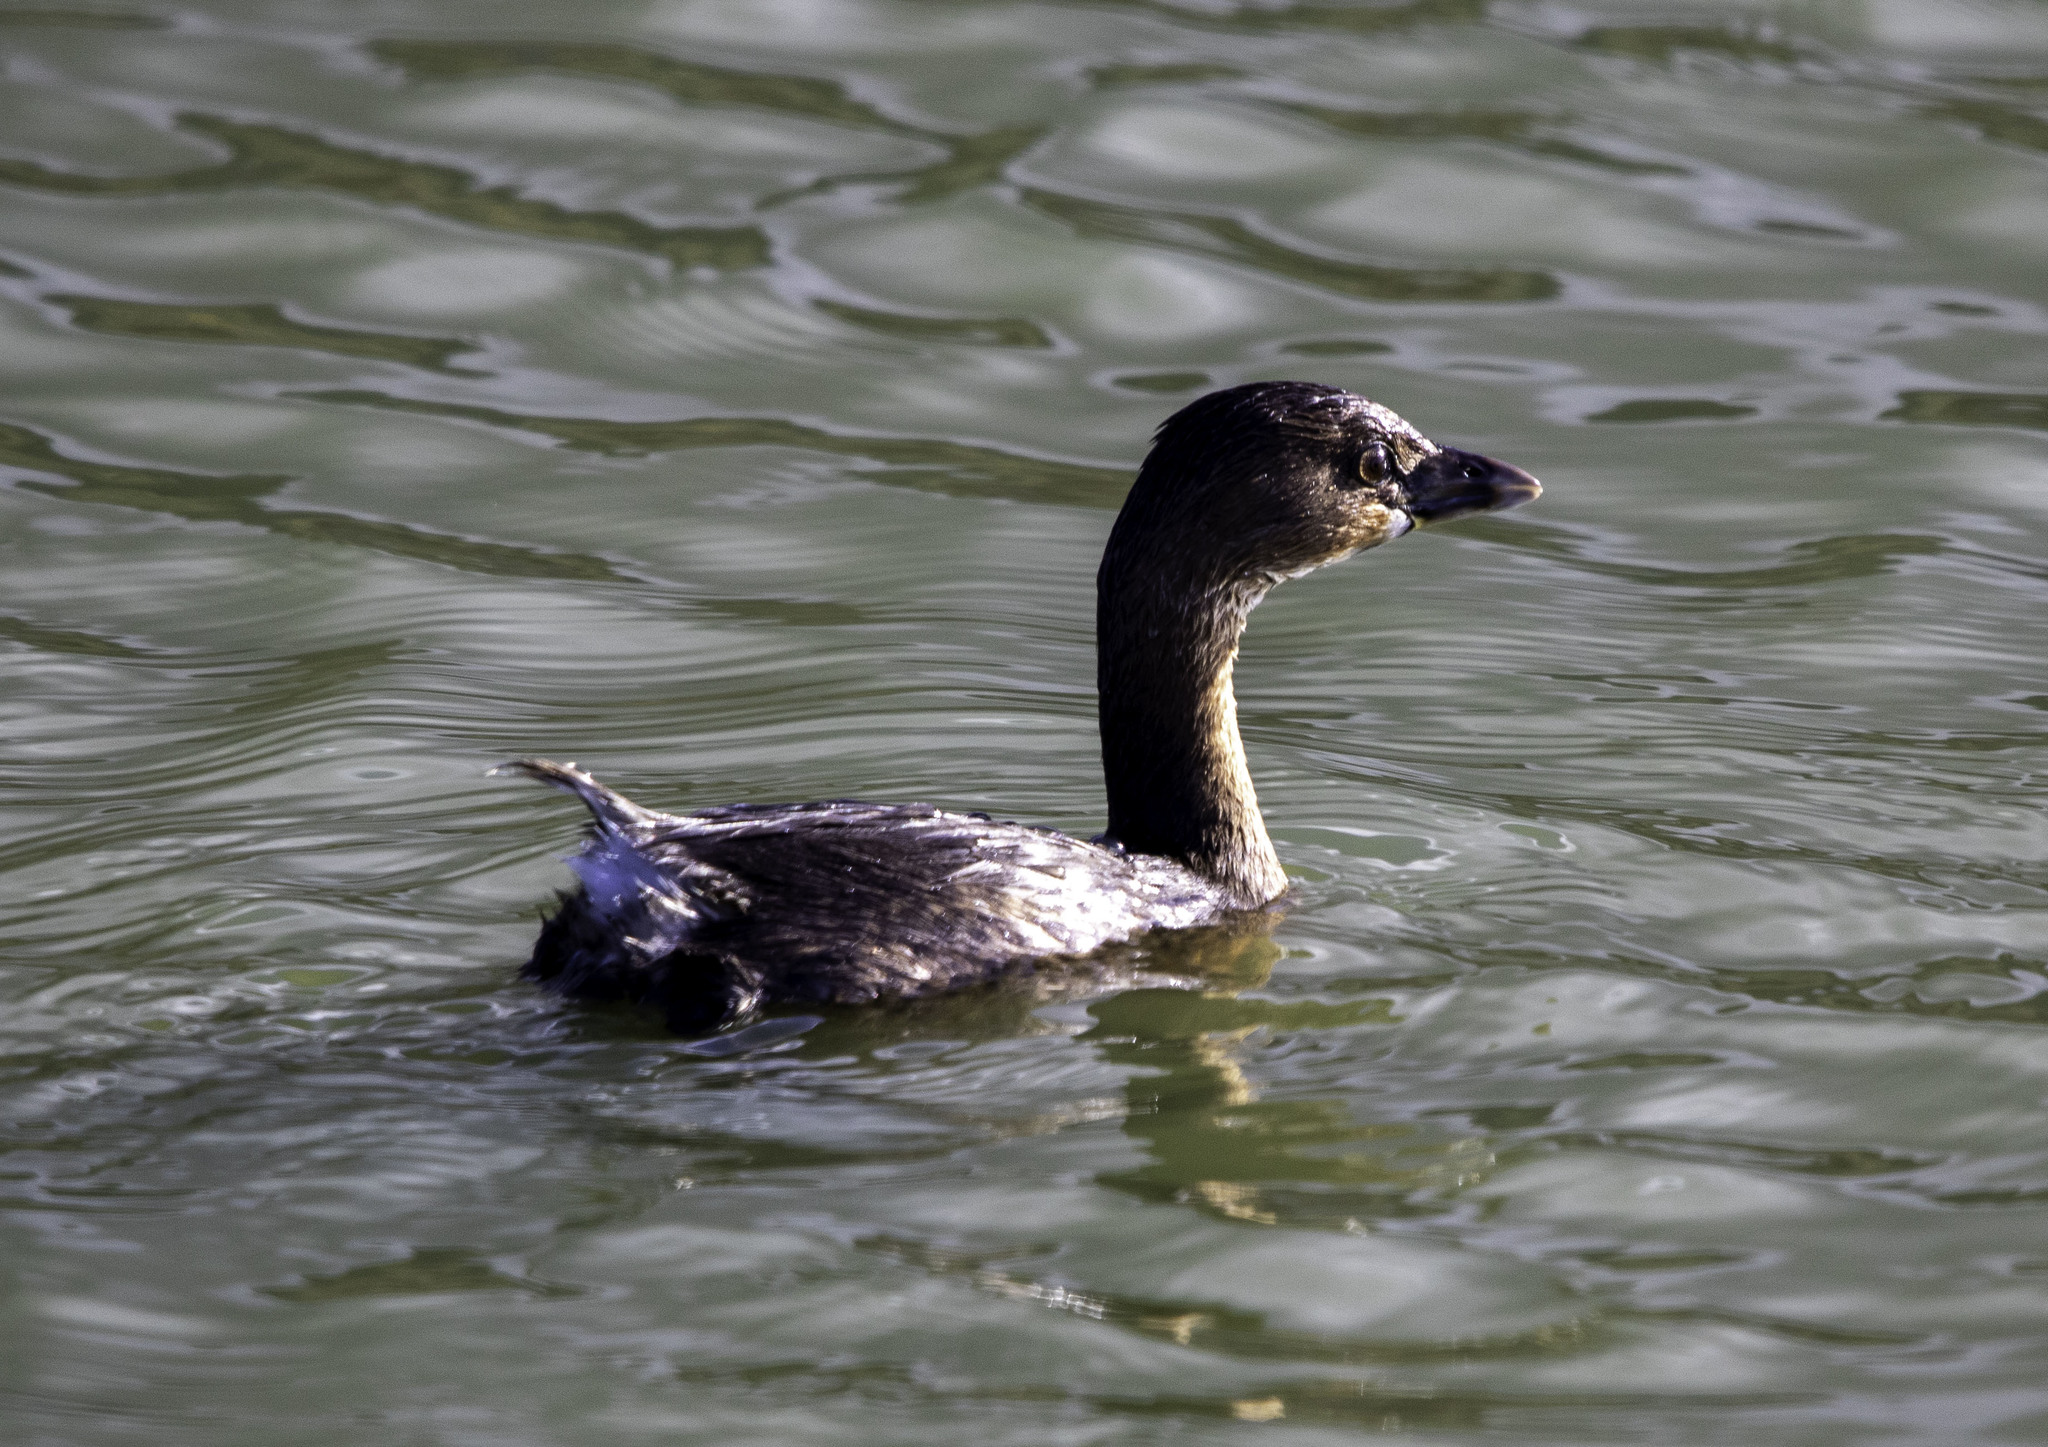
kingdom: Animalia
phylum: Chordata
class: Aves
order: Podicipediformes
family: Podicipedidae
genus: Podilymbus
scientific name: Podilymbus podiceps
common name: Pied-billed grebe
